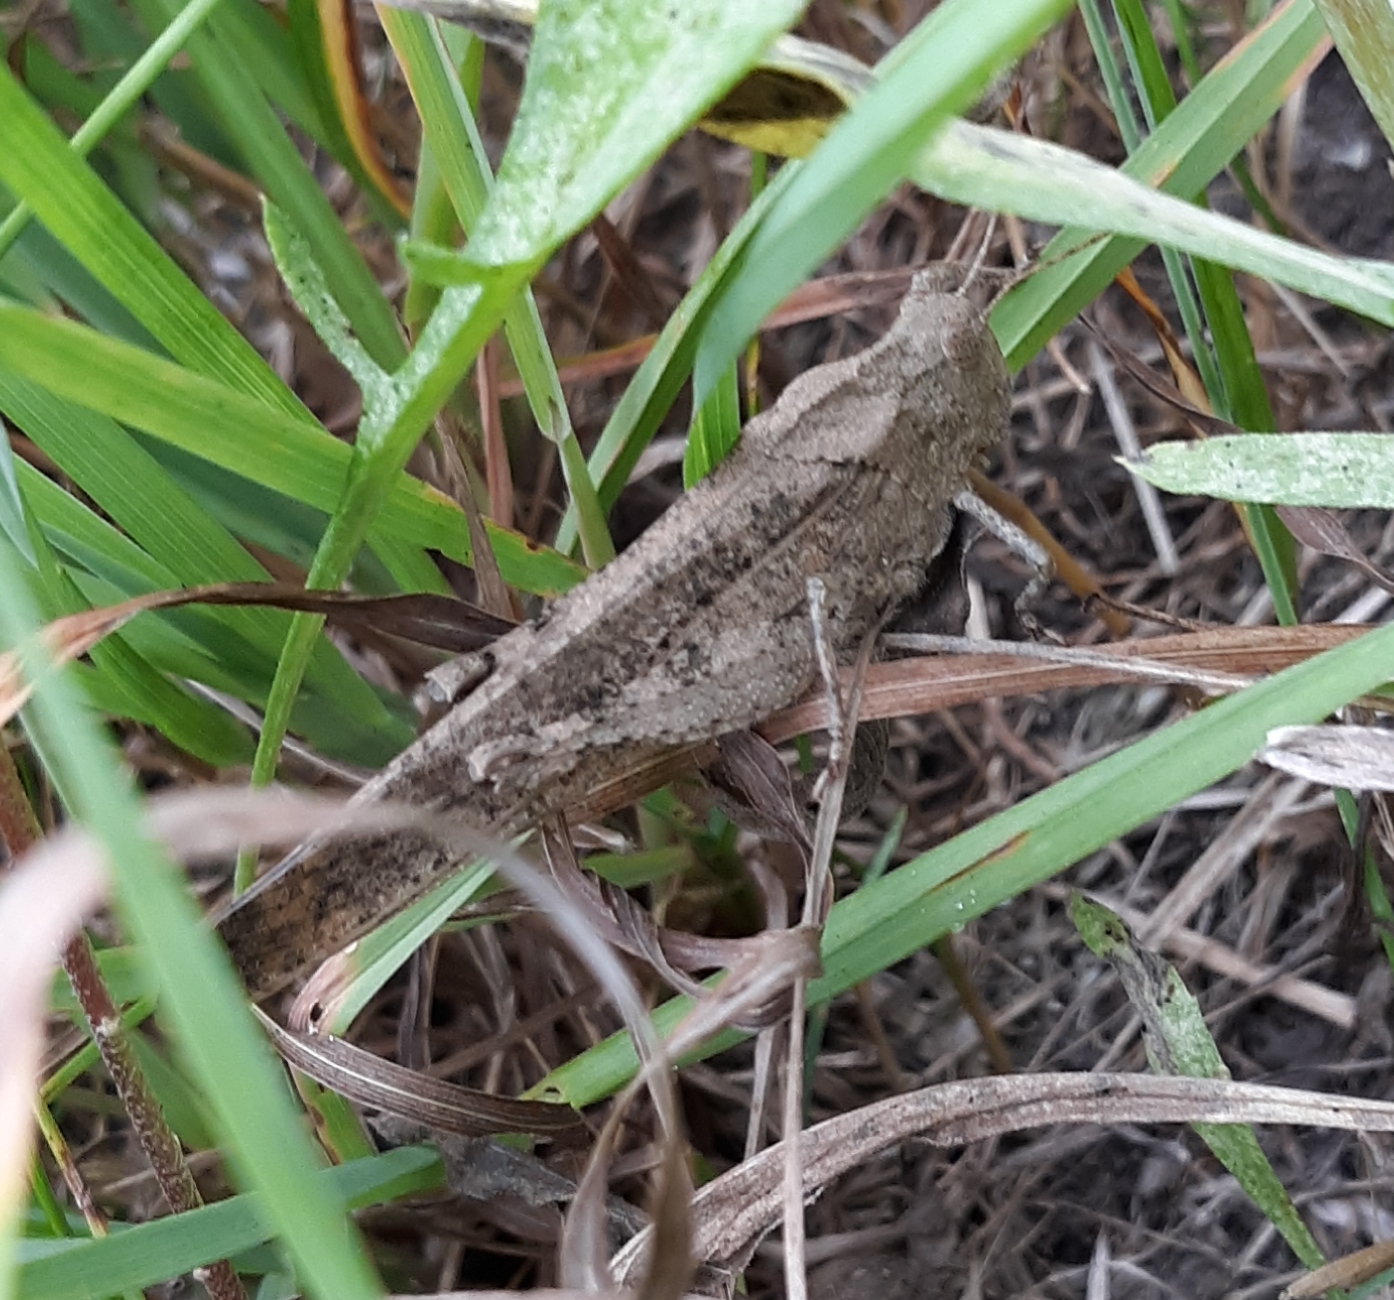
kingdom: Animalia
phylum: Arthropoda
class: Insecta
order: Orthoptera
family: Acrididae
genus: Dissosteira
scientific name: Dissosteira carolina
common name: Carolina grasshopper
